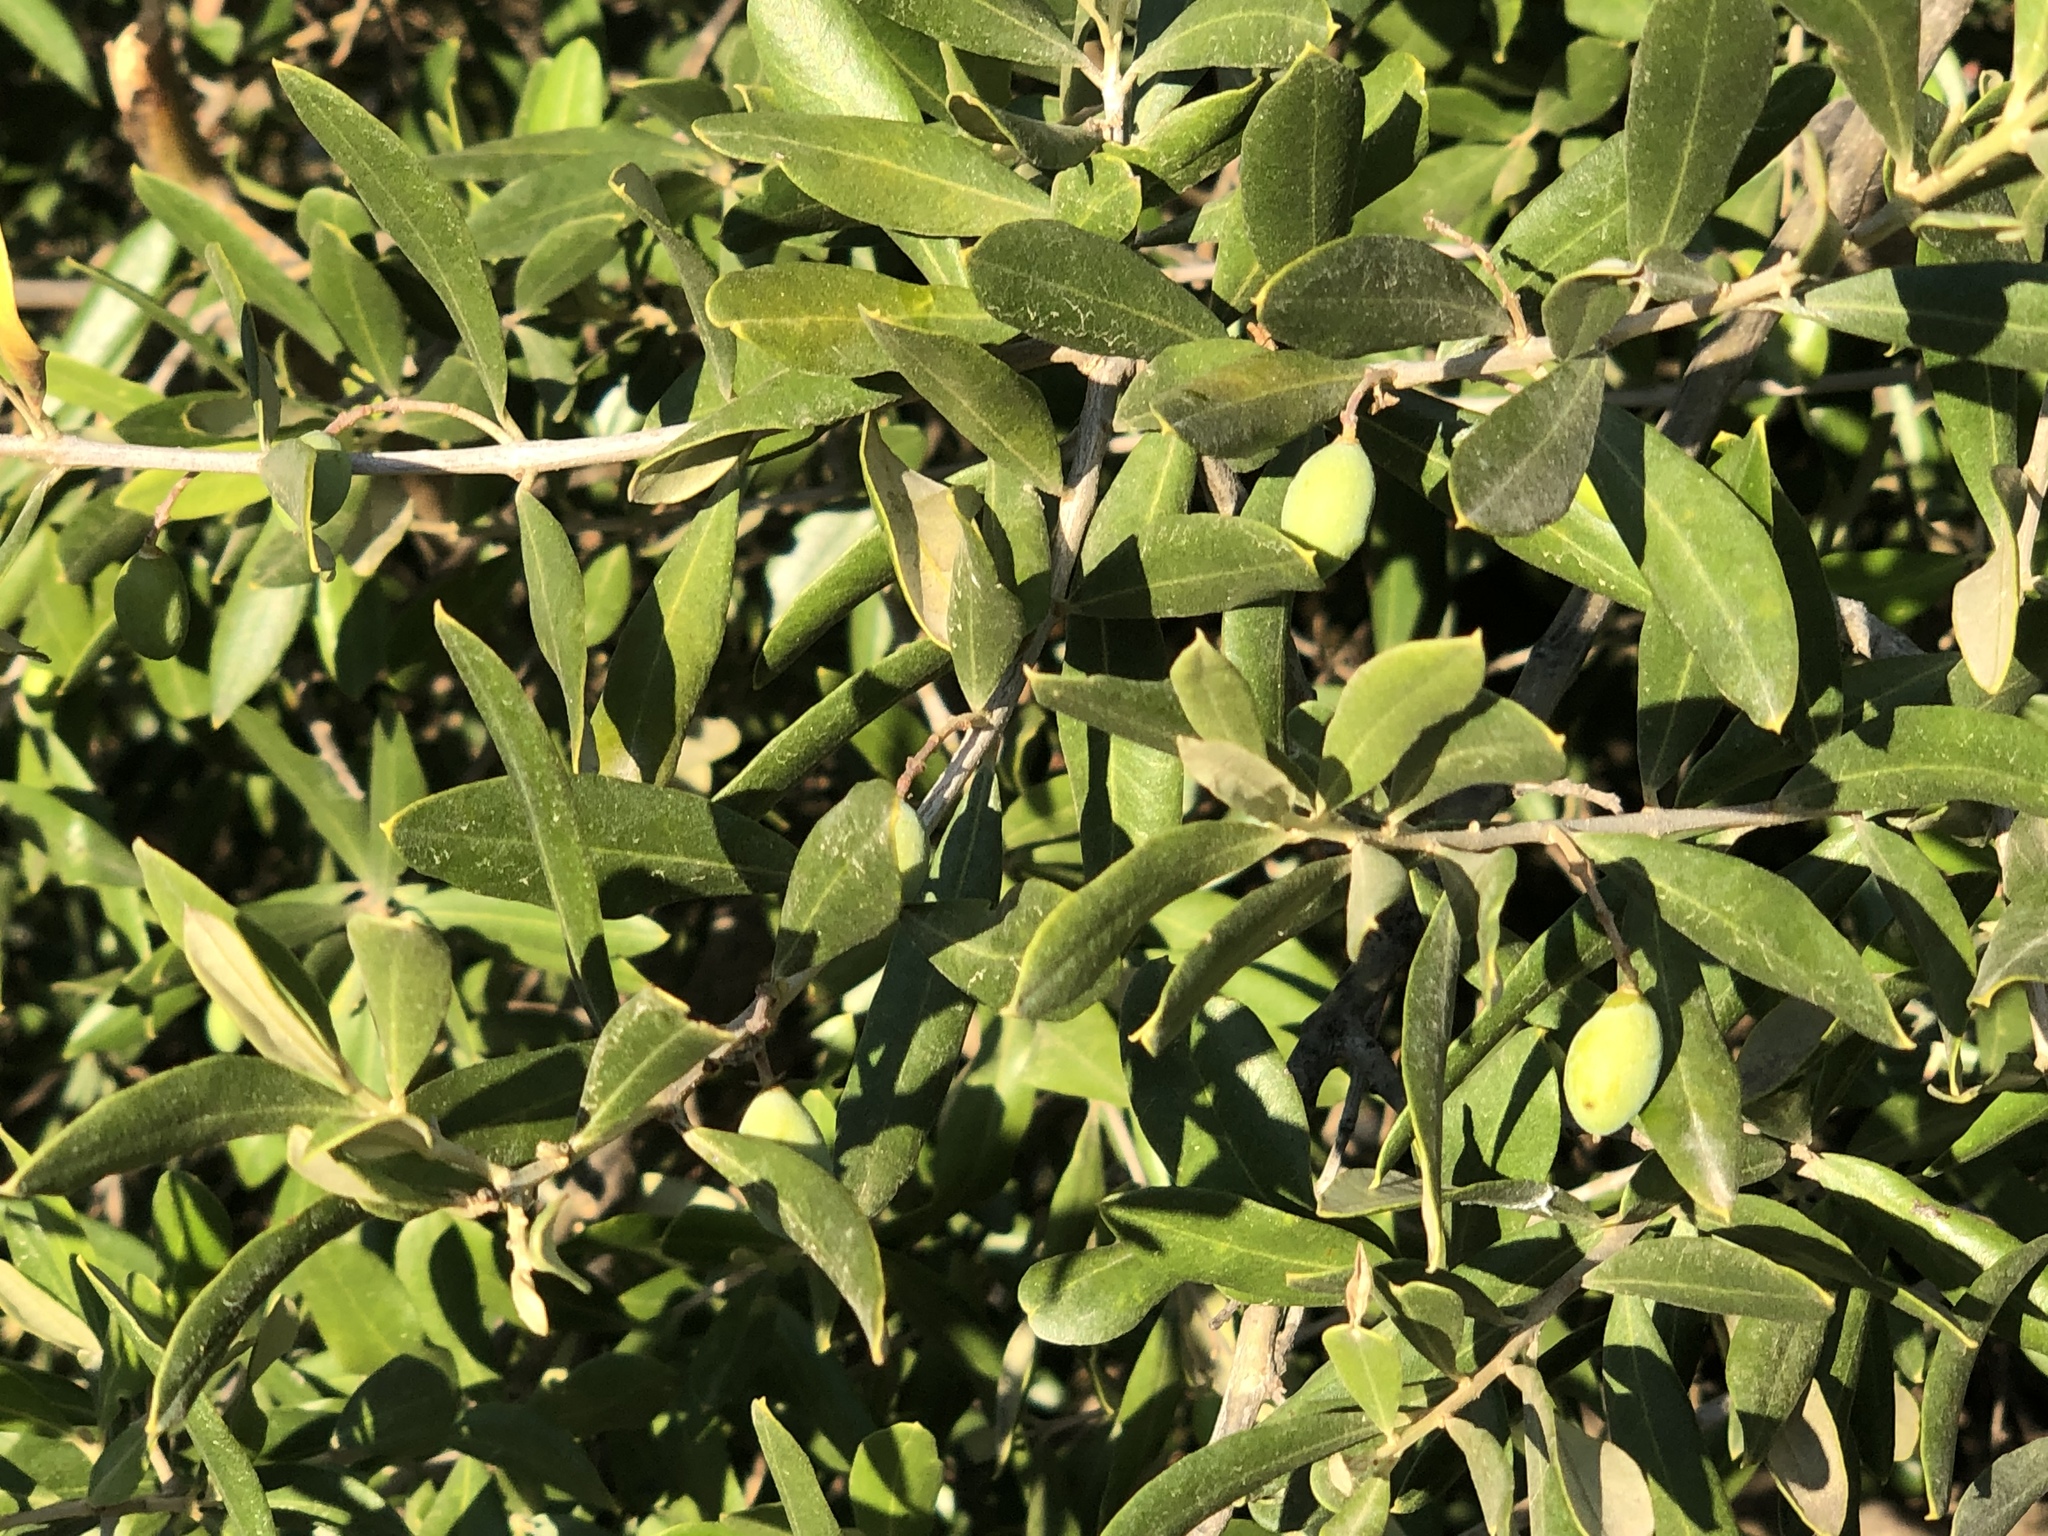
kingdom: Plantae
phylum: Tracheophyta
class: Magnoliopsida
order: Lamiales
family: Oleaceae
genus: Olea
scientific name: Olea europaea
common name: Olive
